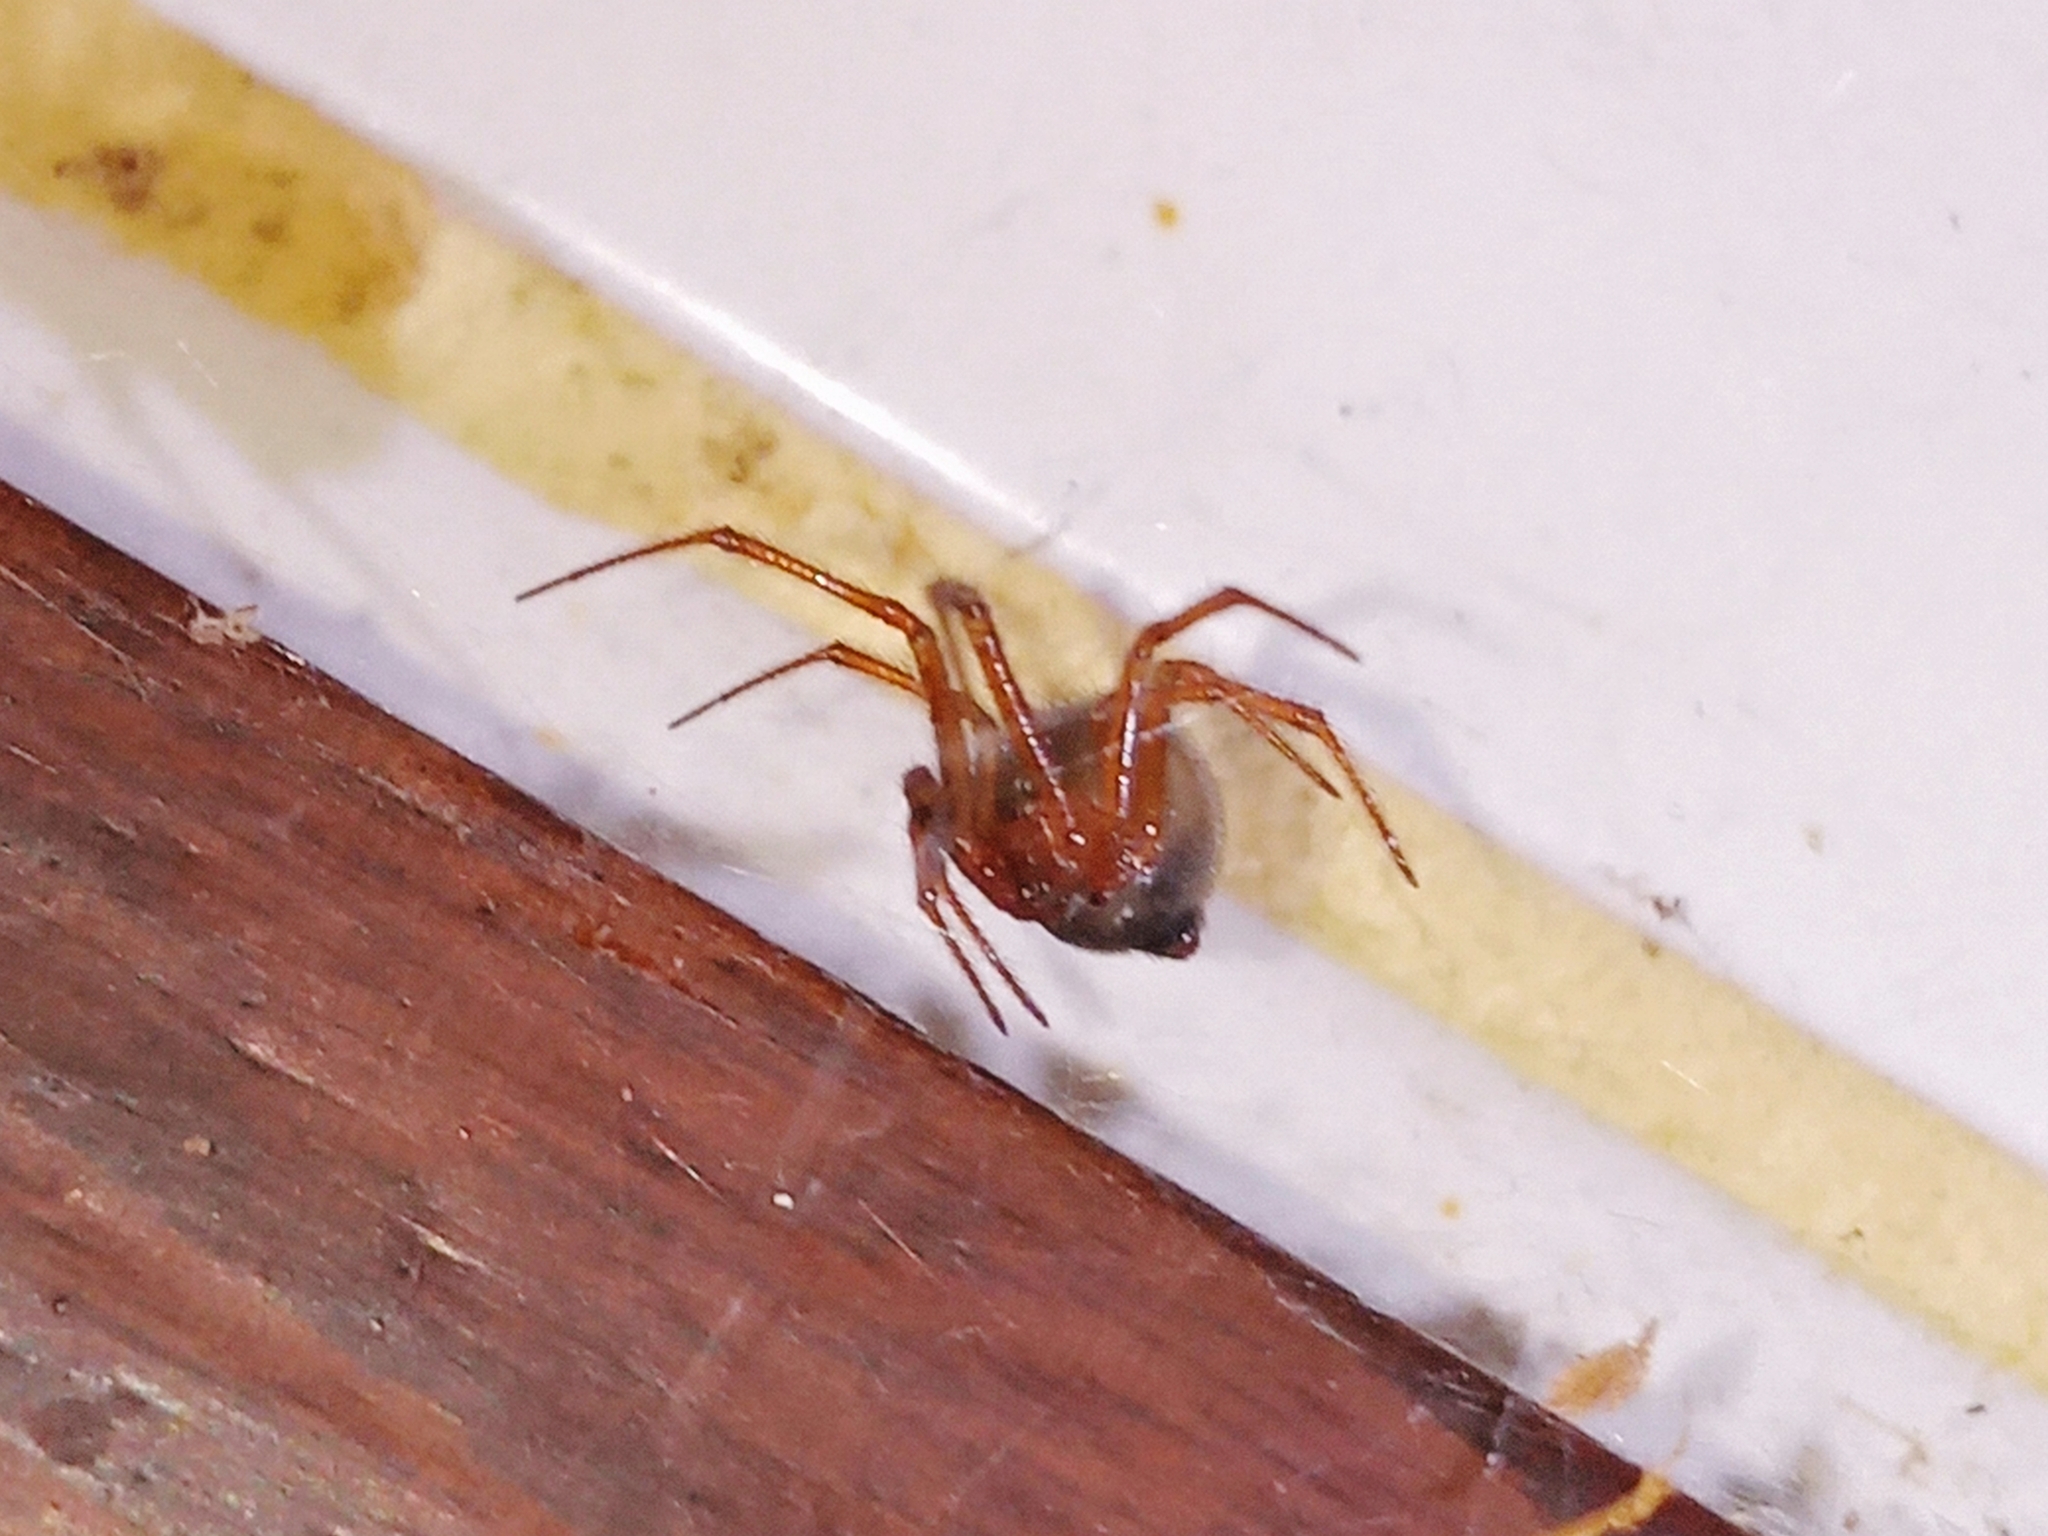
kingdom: Animalia
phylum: Arthropoda
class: Arachnida
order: Araneae
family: Theridiidae
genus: Nesticodes
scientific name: Nesticodes rufipes
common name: Cobweb spiders
